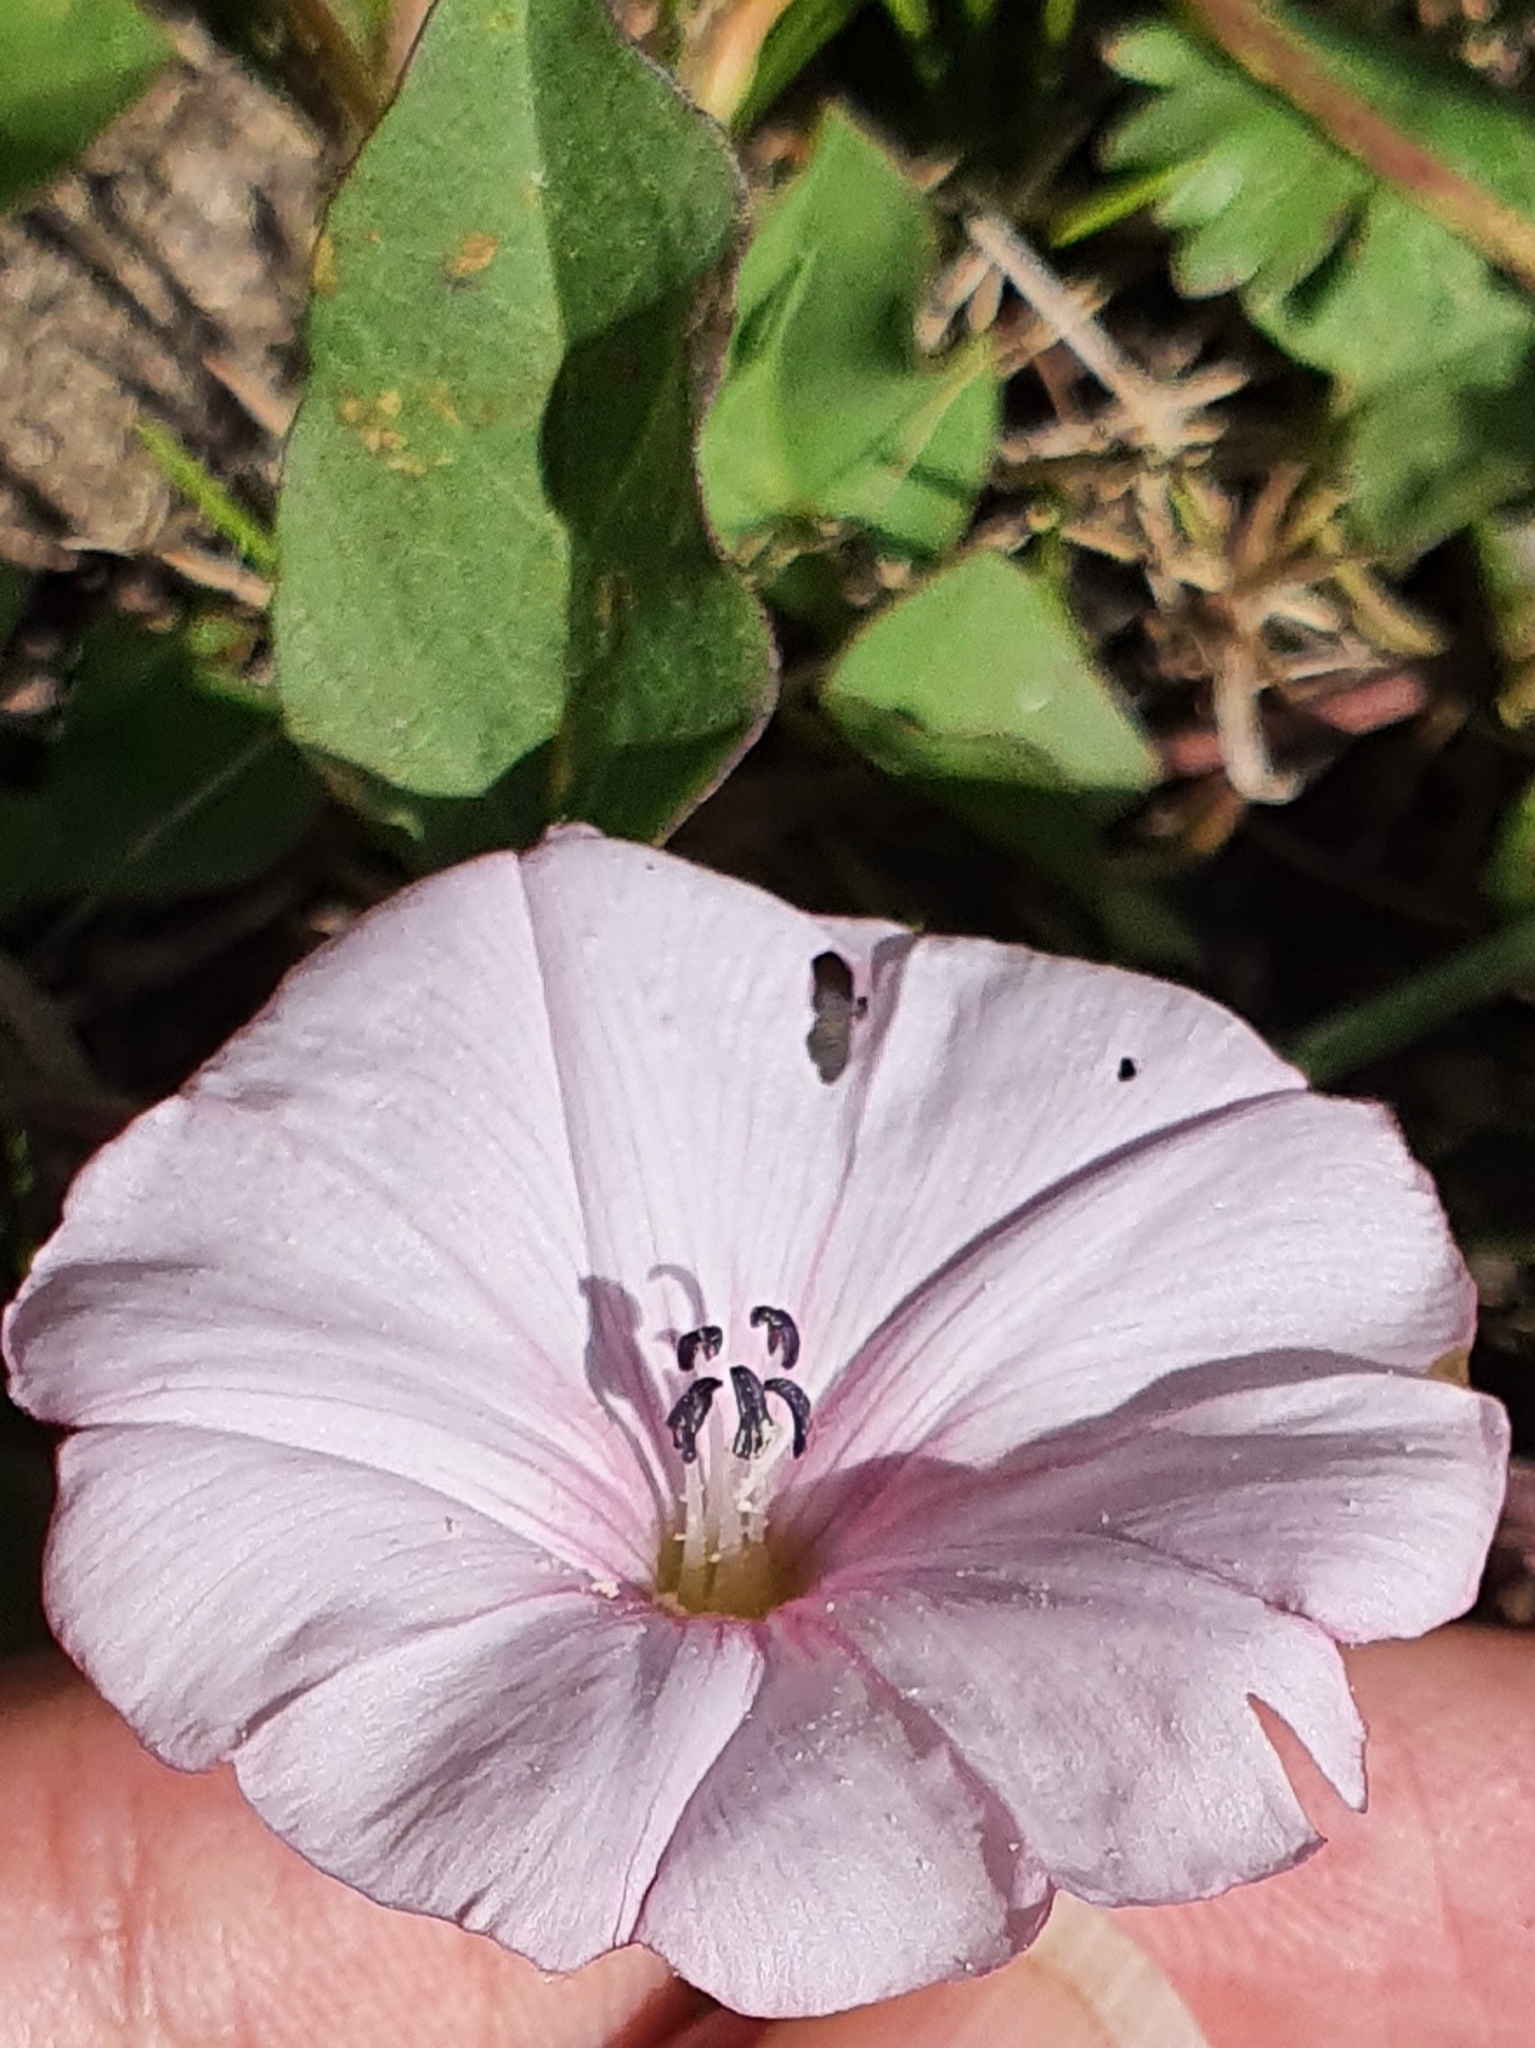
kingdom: Plantae
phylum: Tracheophyta
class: Magnoliopsida
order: Solanales
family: Convolvulaceae
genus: Convolvulus
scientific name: Convolvulus durandoi
